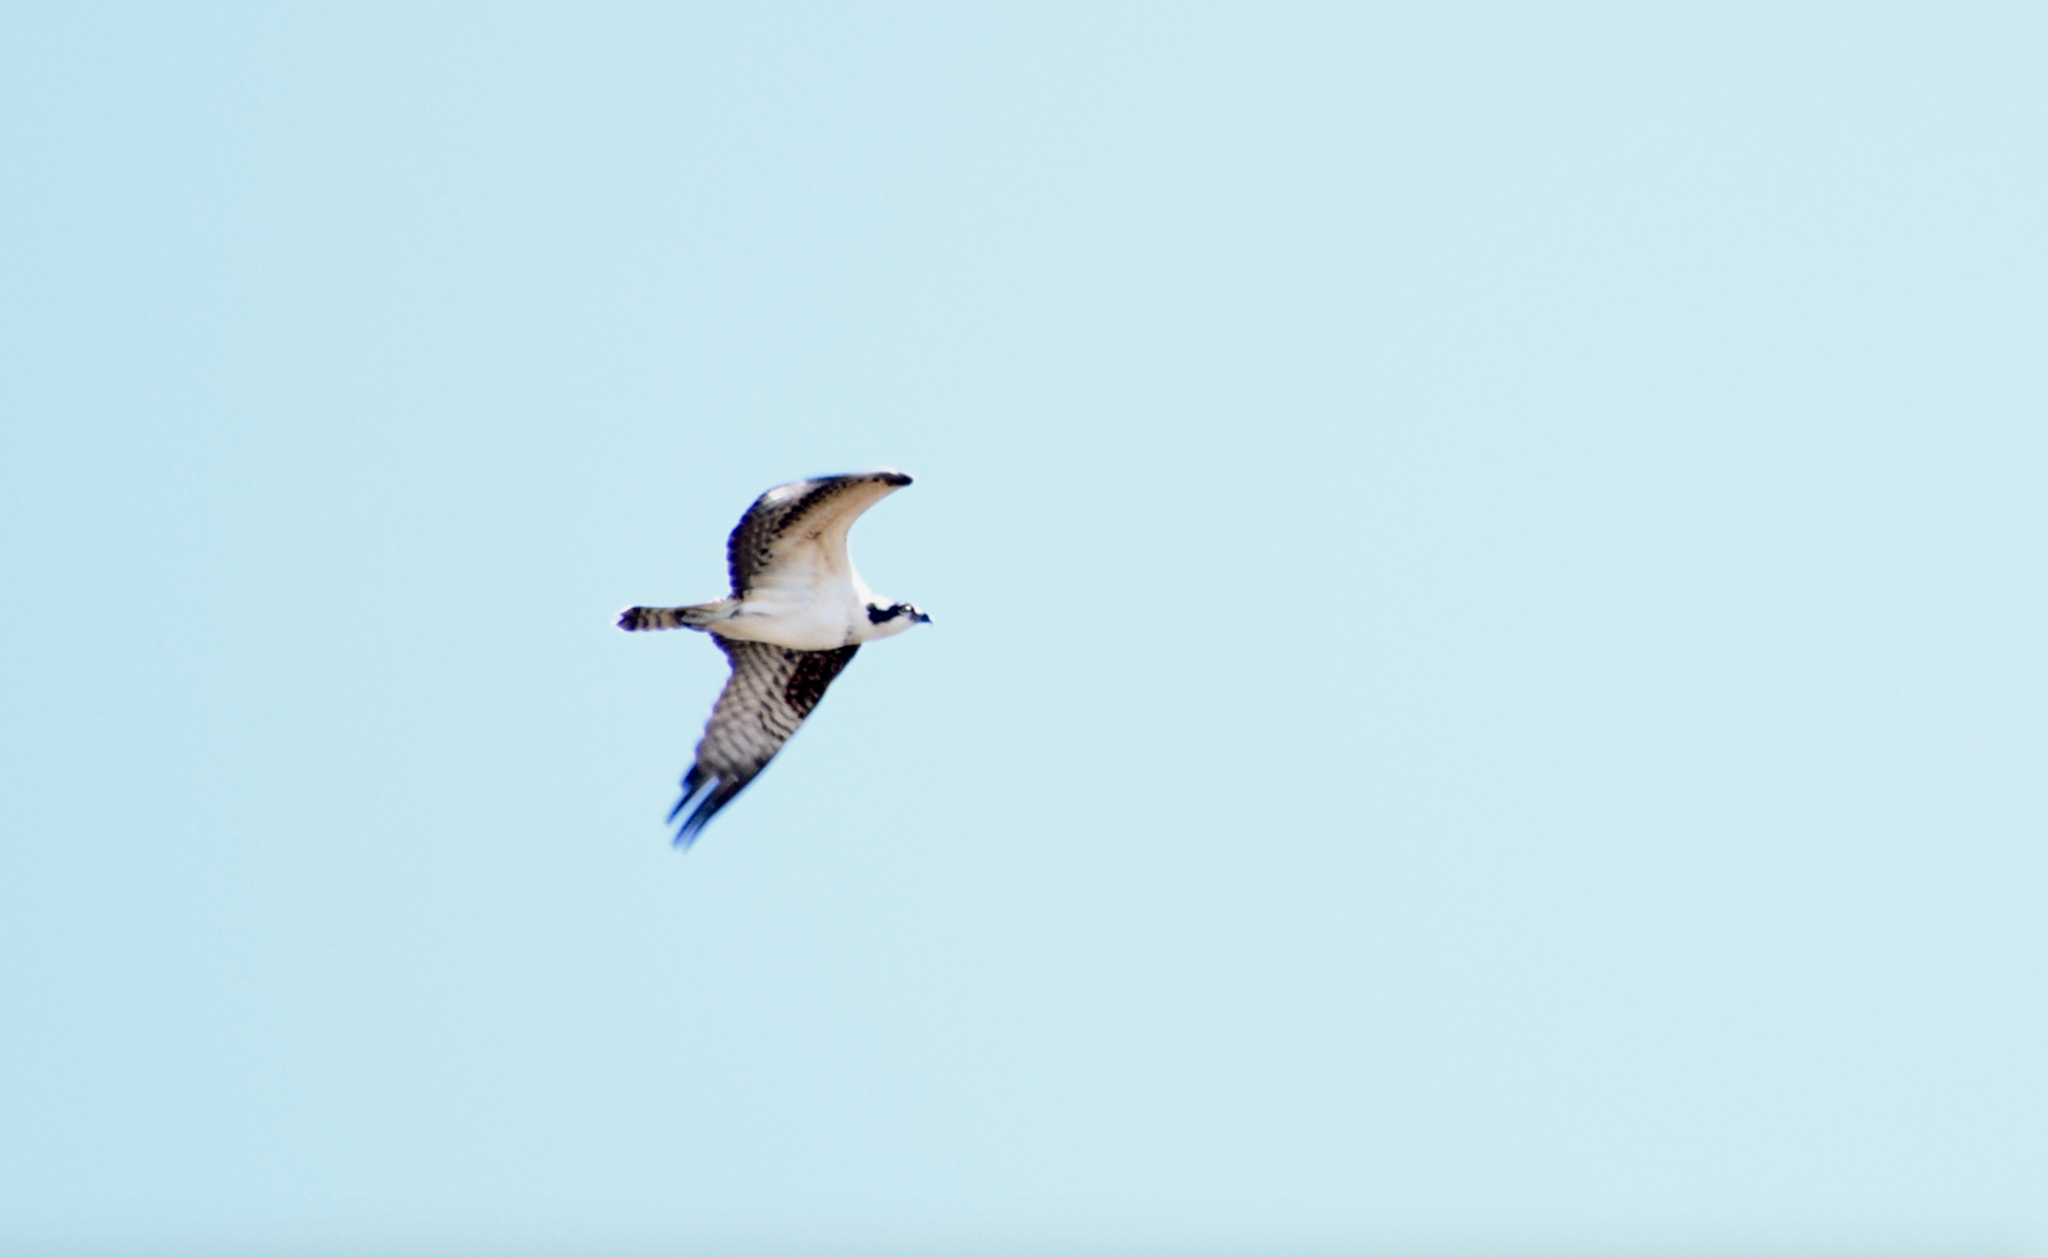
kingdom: Animalia
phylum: Chordata
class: Aves
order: Accipitriformes
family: Pandionidae
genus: Pandion
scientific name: Pandion haliaetus
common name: Osprey
